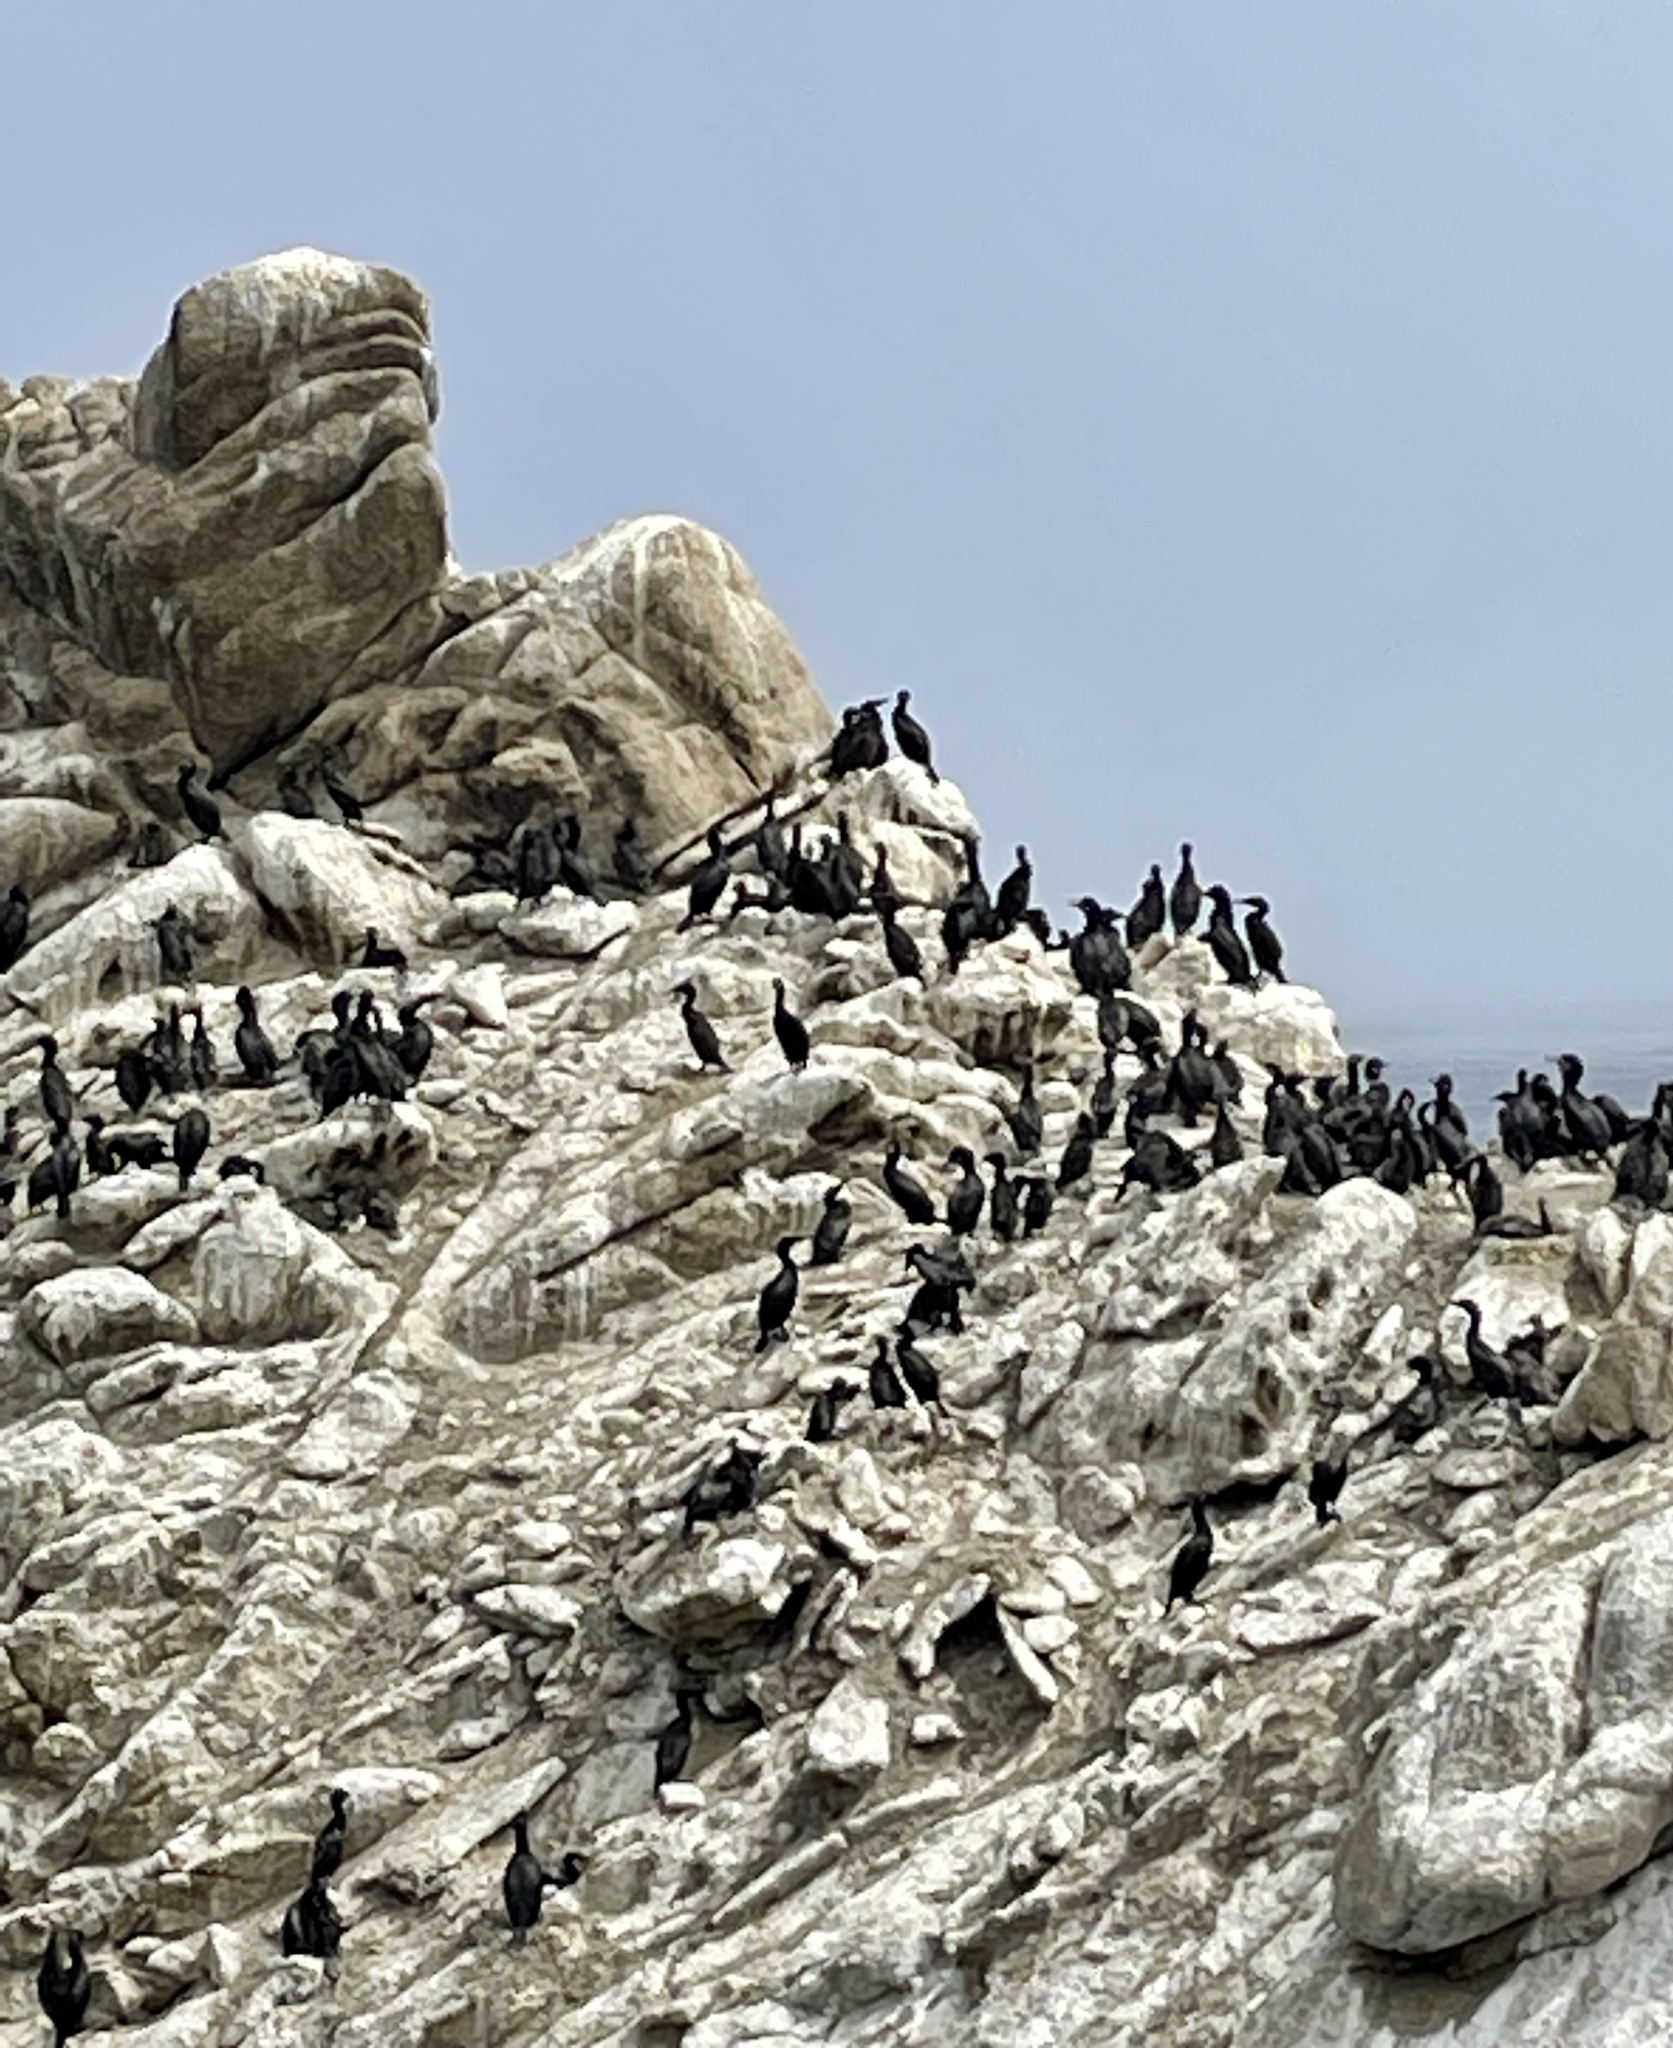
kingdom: Animalia
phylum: Chordata
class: Aves
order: Suliformes
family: Phalacrocoracidae
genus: Urile
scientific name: Urile penicillatus
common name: Brandt's cormorant
